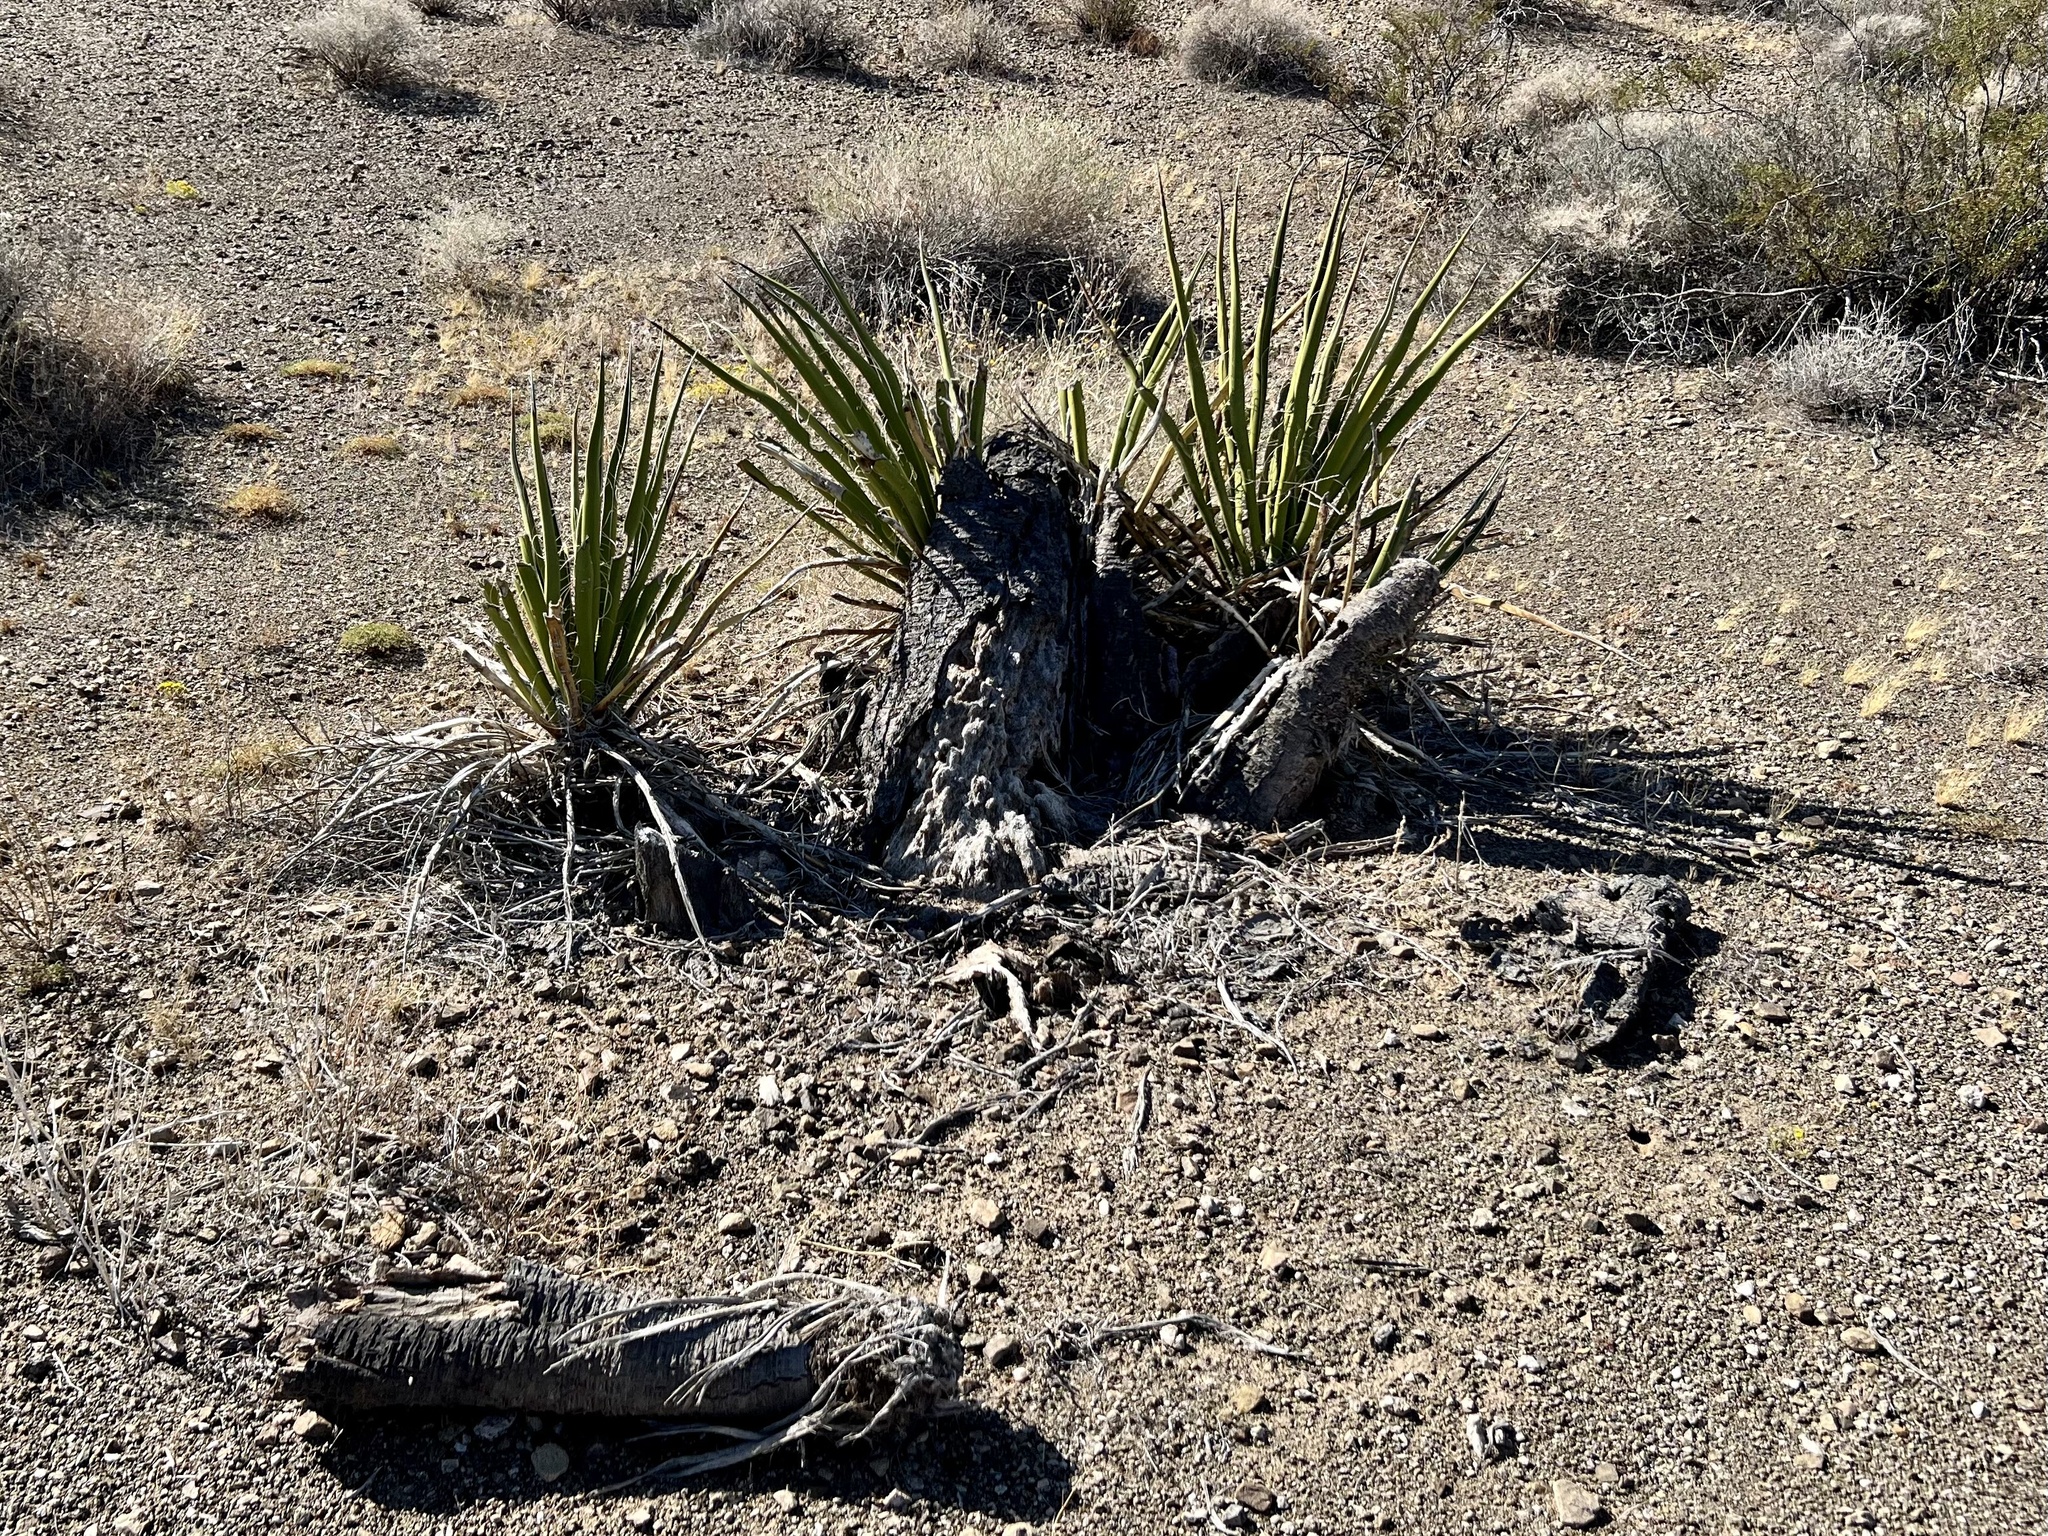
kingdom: Plantae
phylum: Tracheophyta
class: Liliopsida
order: Asparagales
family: Asparagaceae
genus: Yucca
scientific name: Yucca schidigera
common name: Mojave yucca
